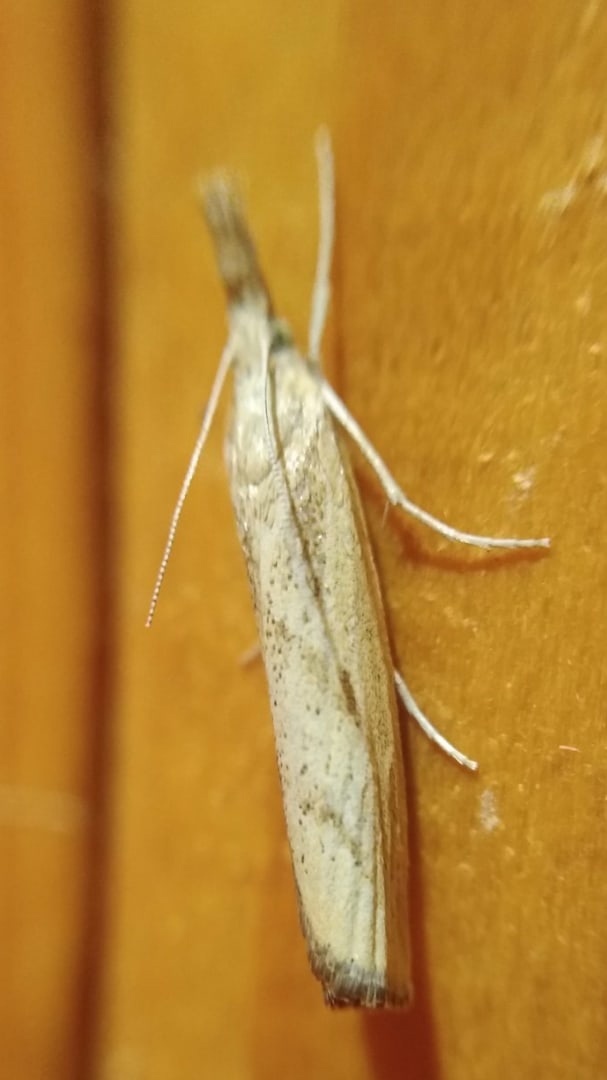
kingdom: Animalia
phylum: Arthropoda
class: Insecta
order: Lepidoptera
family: Crambidae
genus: Agriphila
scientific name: Agriphila inquinatella
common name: Barred grass-veneer
